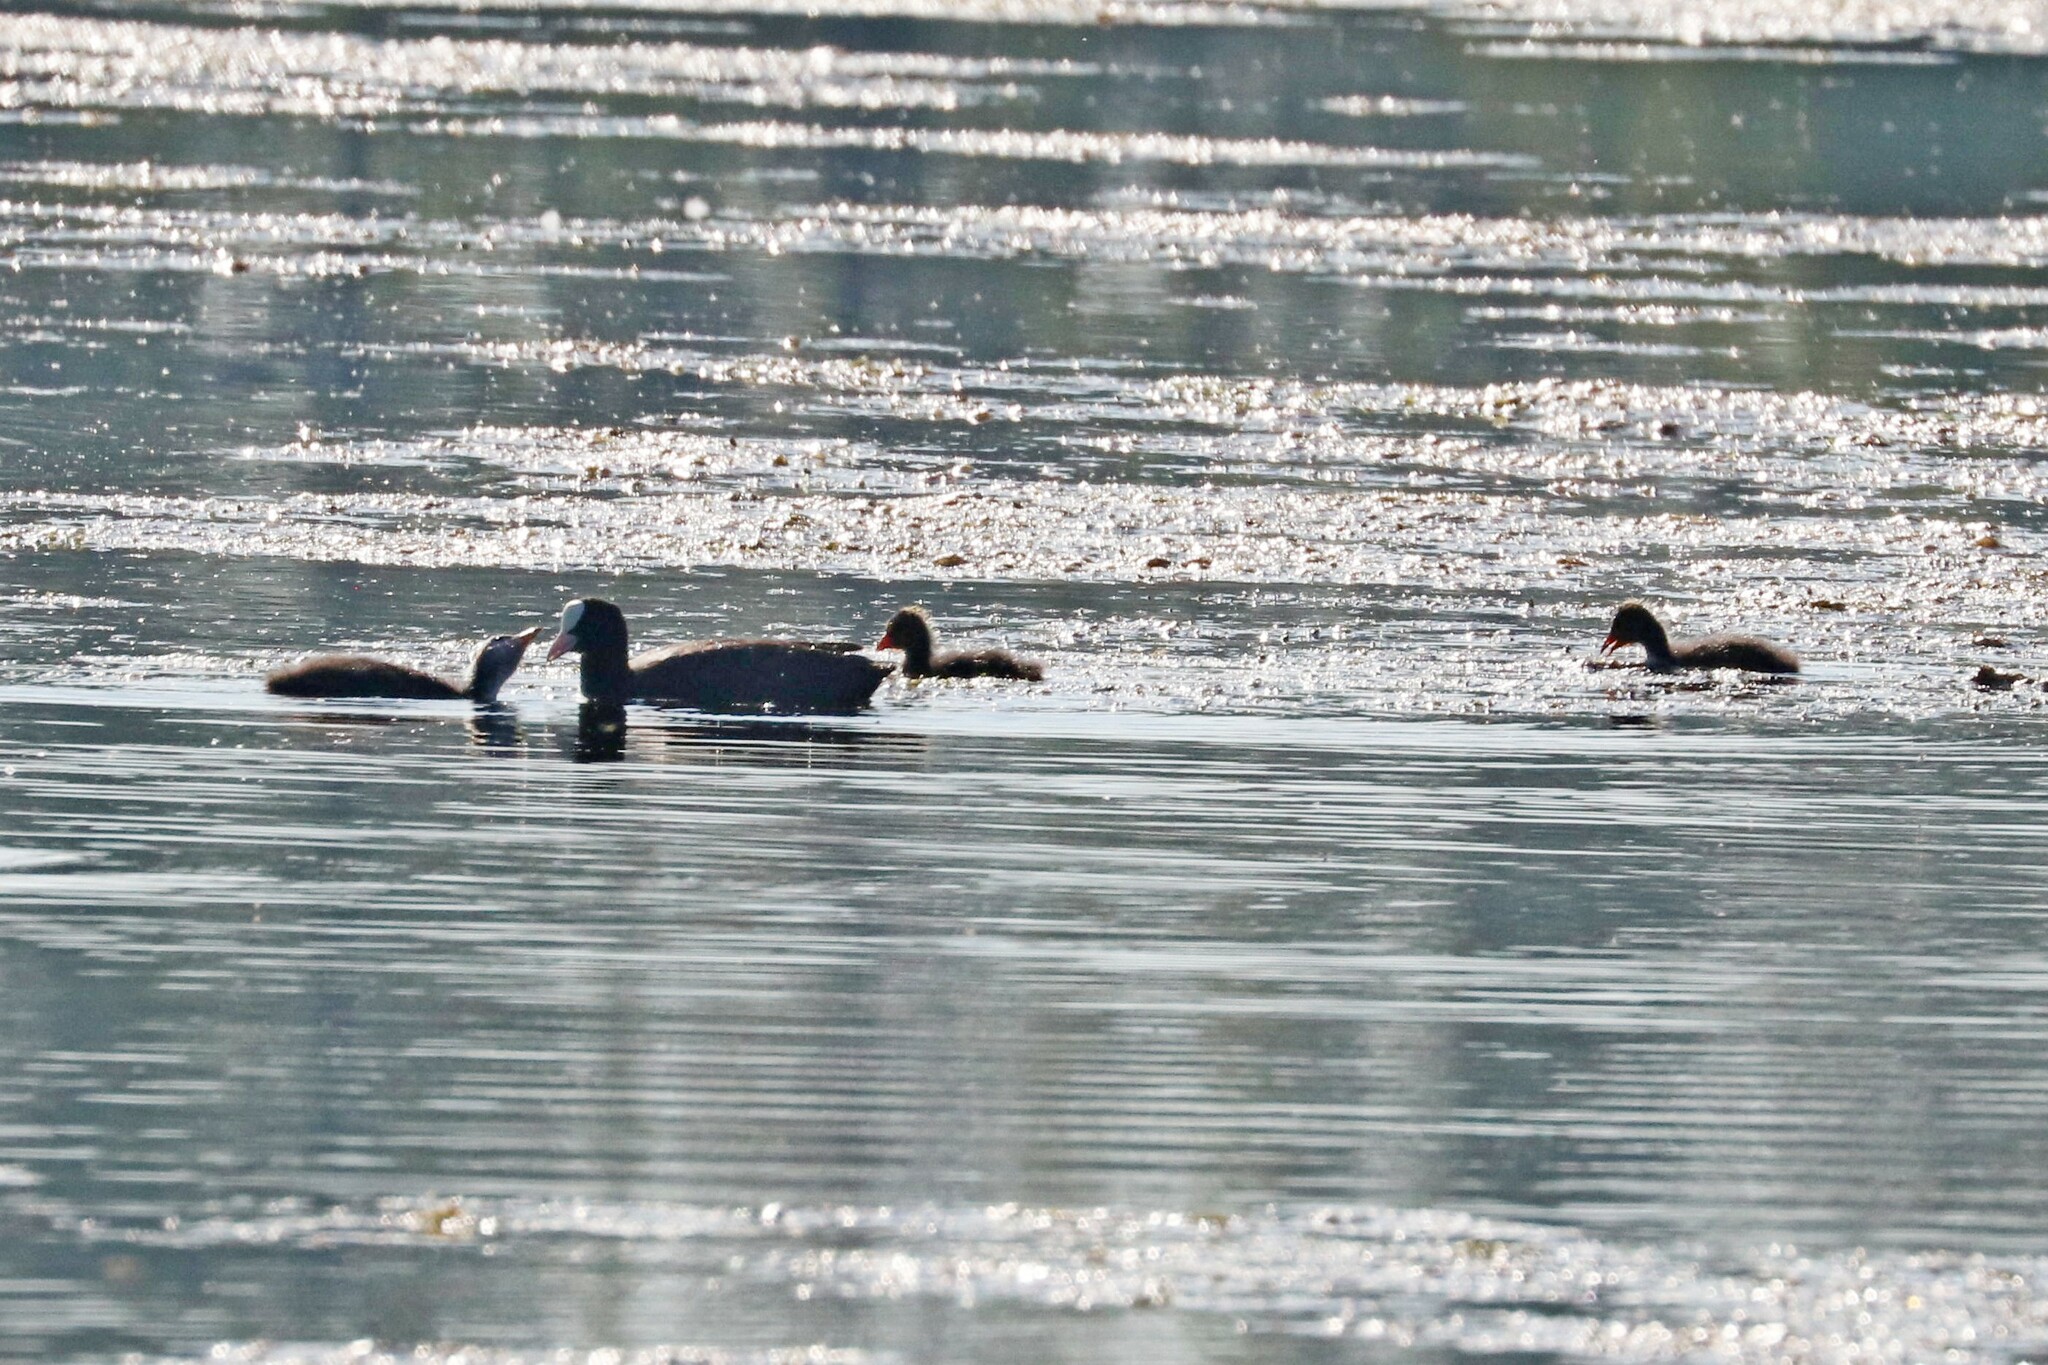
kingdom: Animalia
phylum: Chordata
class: Aves
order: Gruiformes
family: Rallidae
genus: Fulica
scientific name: Fulica atra
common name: Eurasian coot
